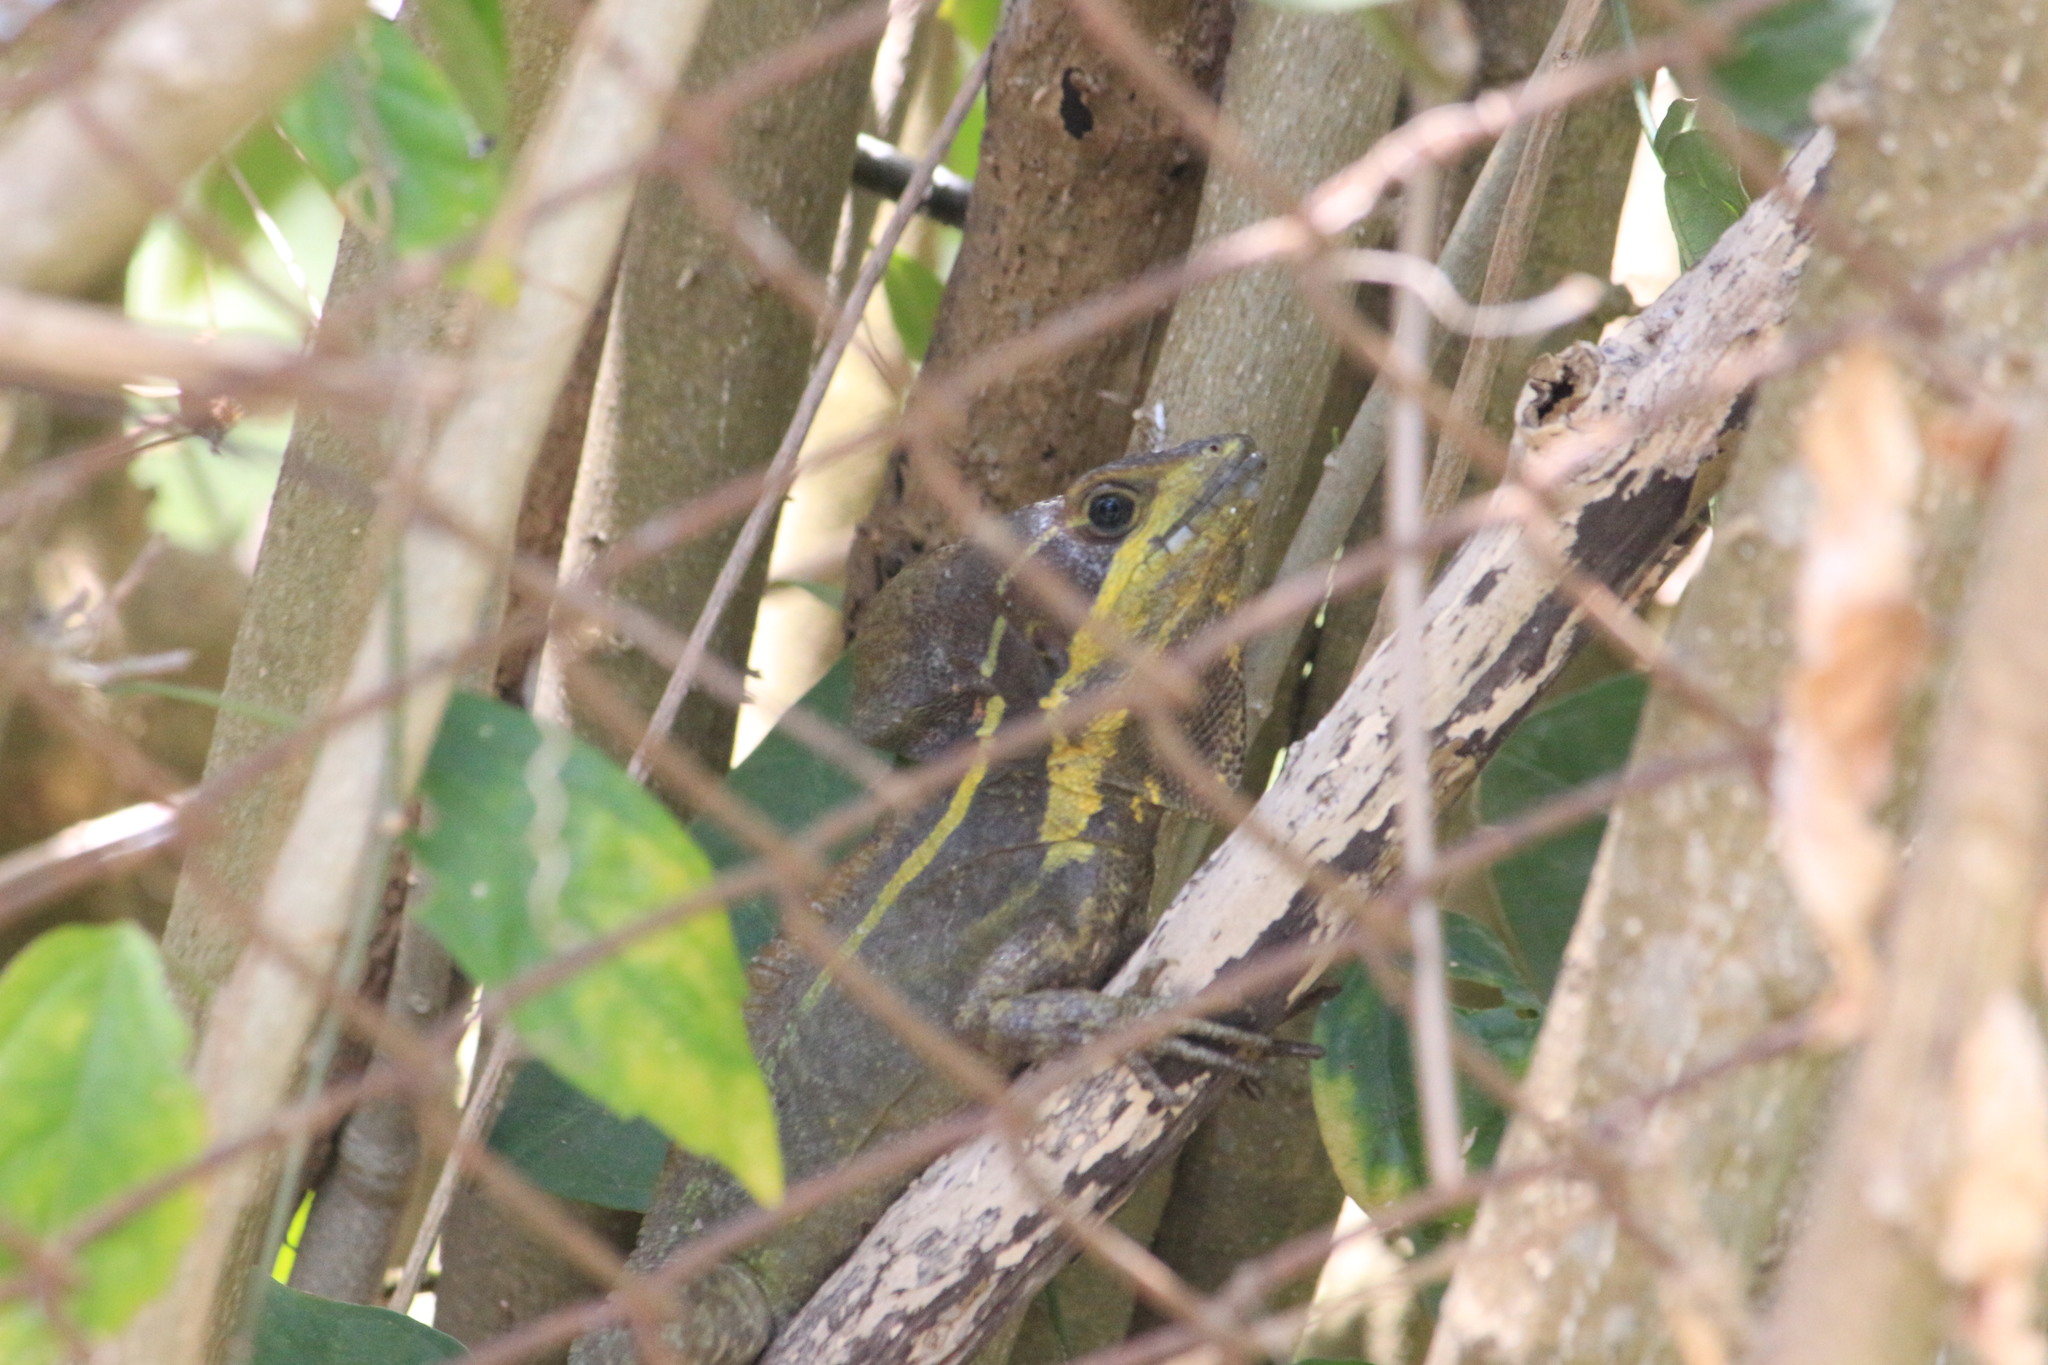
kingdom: Animalia
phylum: Chordata
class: Squamata
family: Corytophanidae
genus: Basiliscus
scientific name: Basiliscus vittatus
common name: Brown basilisk
